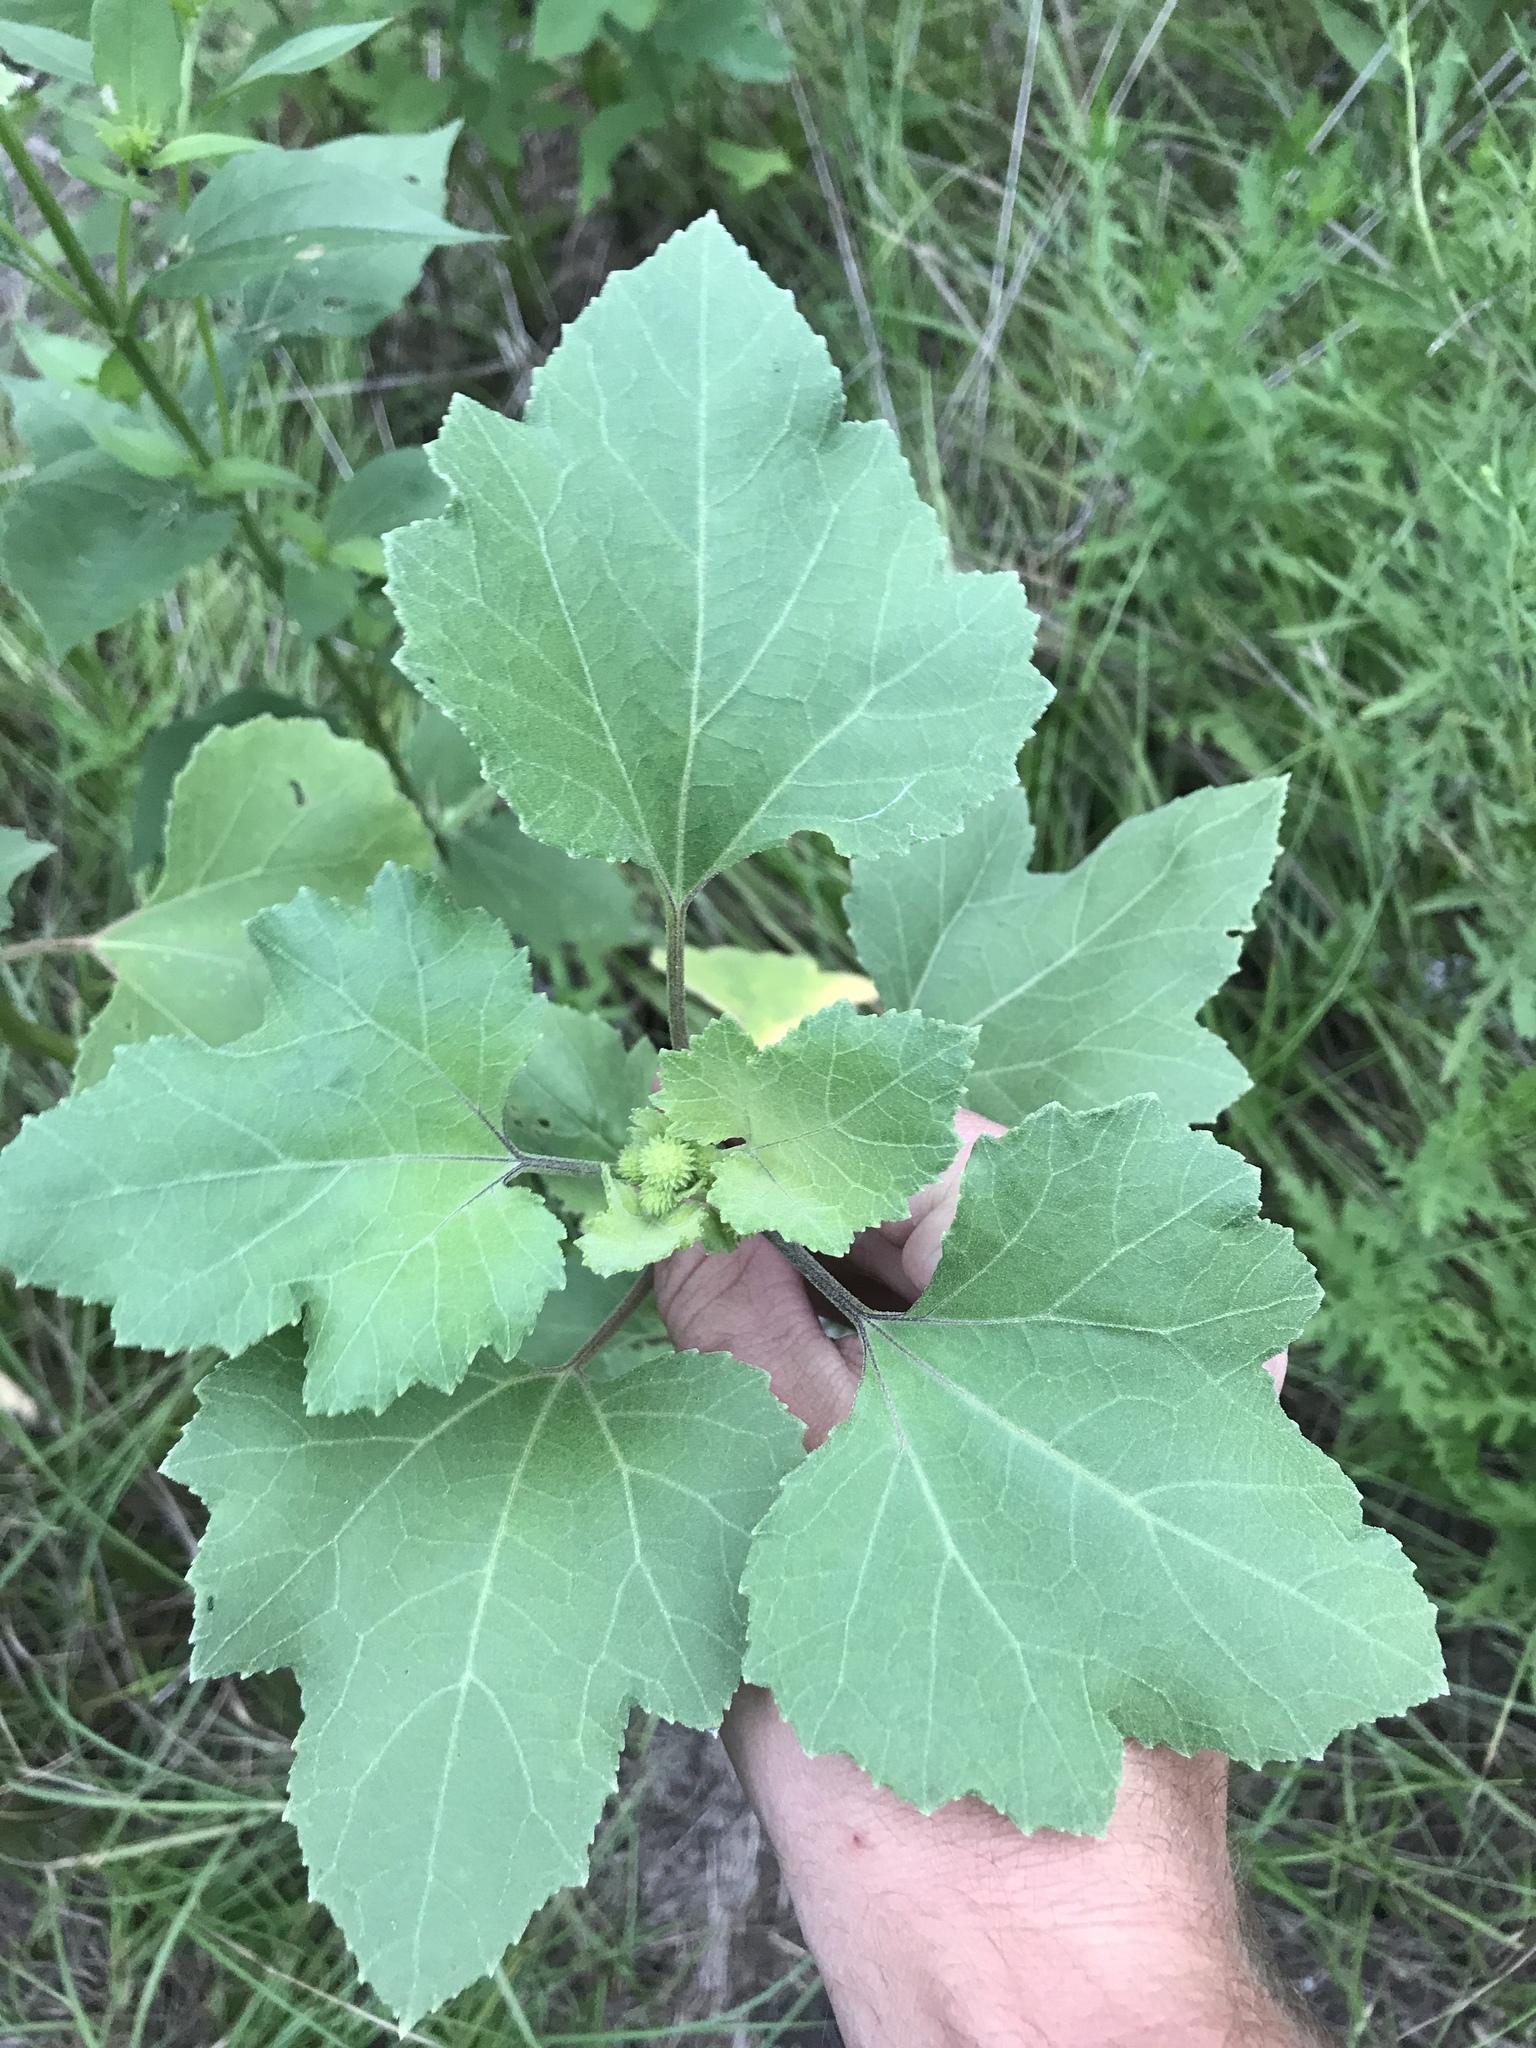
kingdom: Plantae
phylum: Tracheophyta
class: Magnoliopsida
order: Asterales
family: Asteraceae
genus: Xanthium
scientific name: Xanthium strumarium
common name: Rough cocklebur
